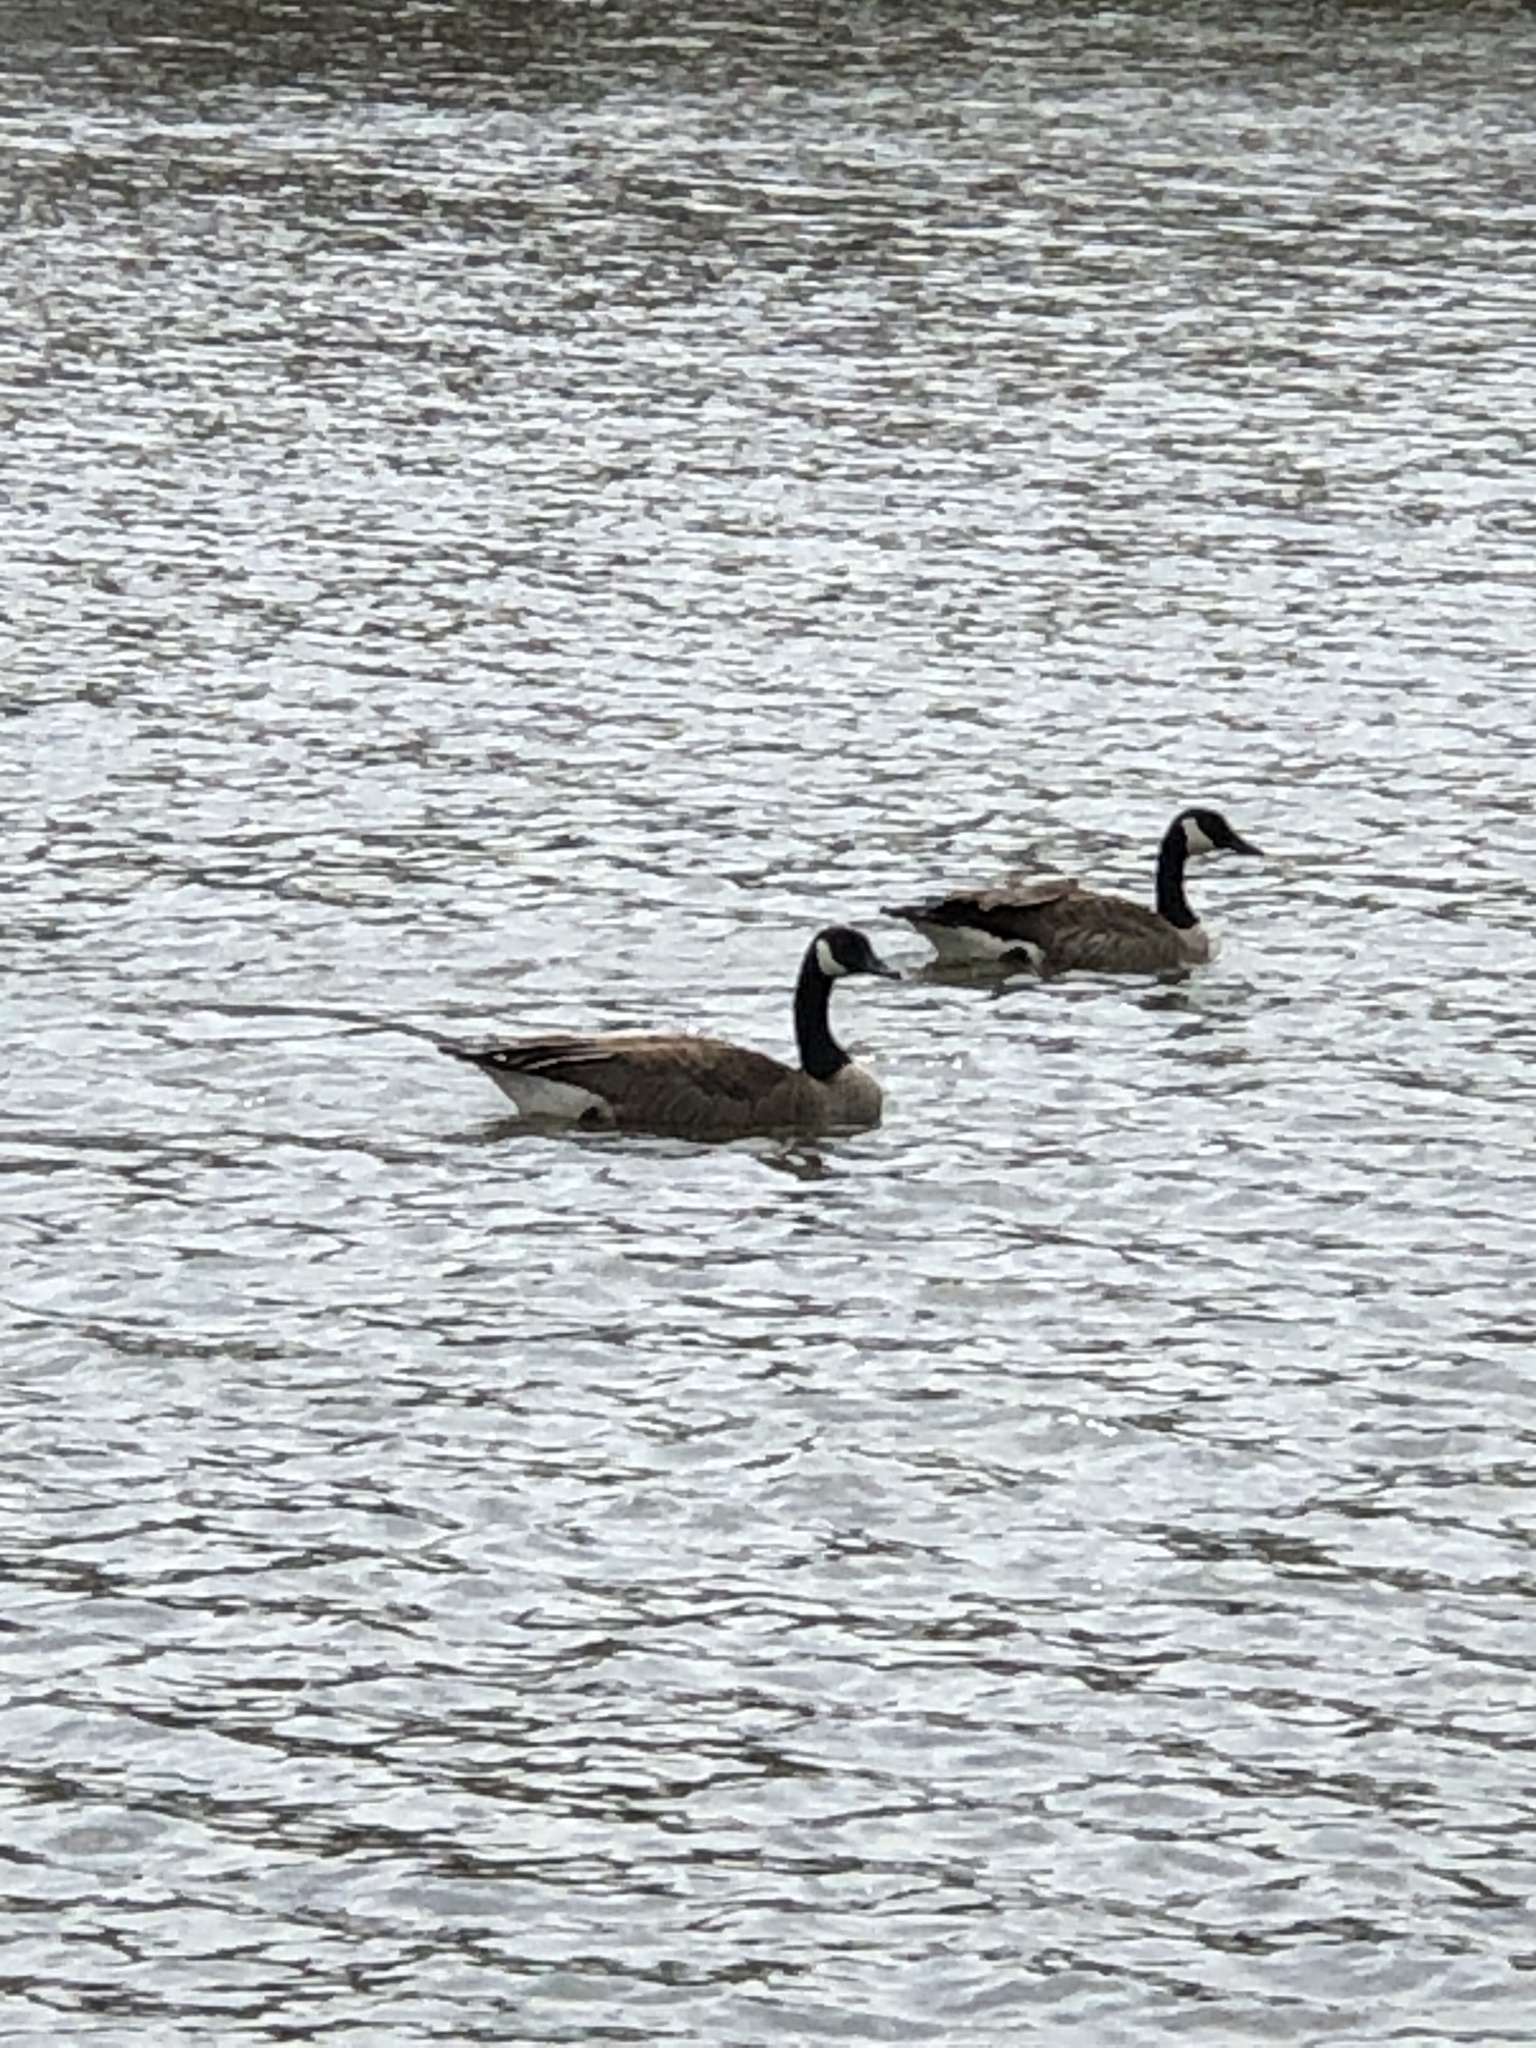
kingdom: Animalia
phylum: Chordata
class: Aves
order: Anseriformes
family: Anatidae
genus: Branta
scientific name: Branta canadensis
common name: Canada goose
